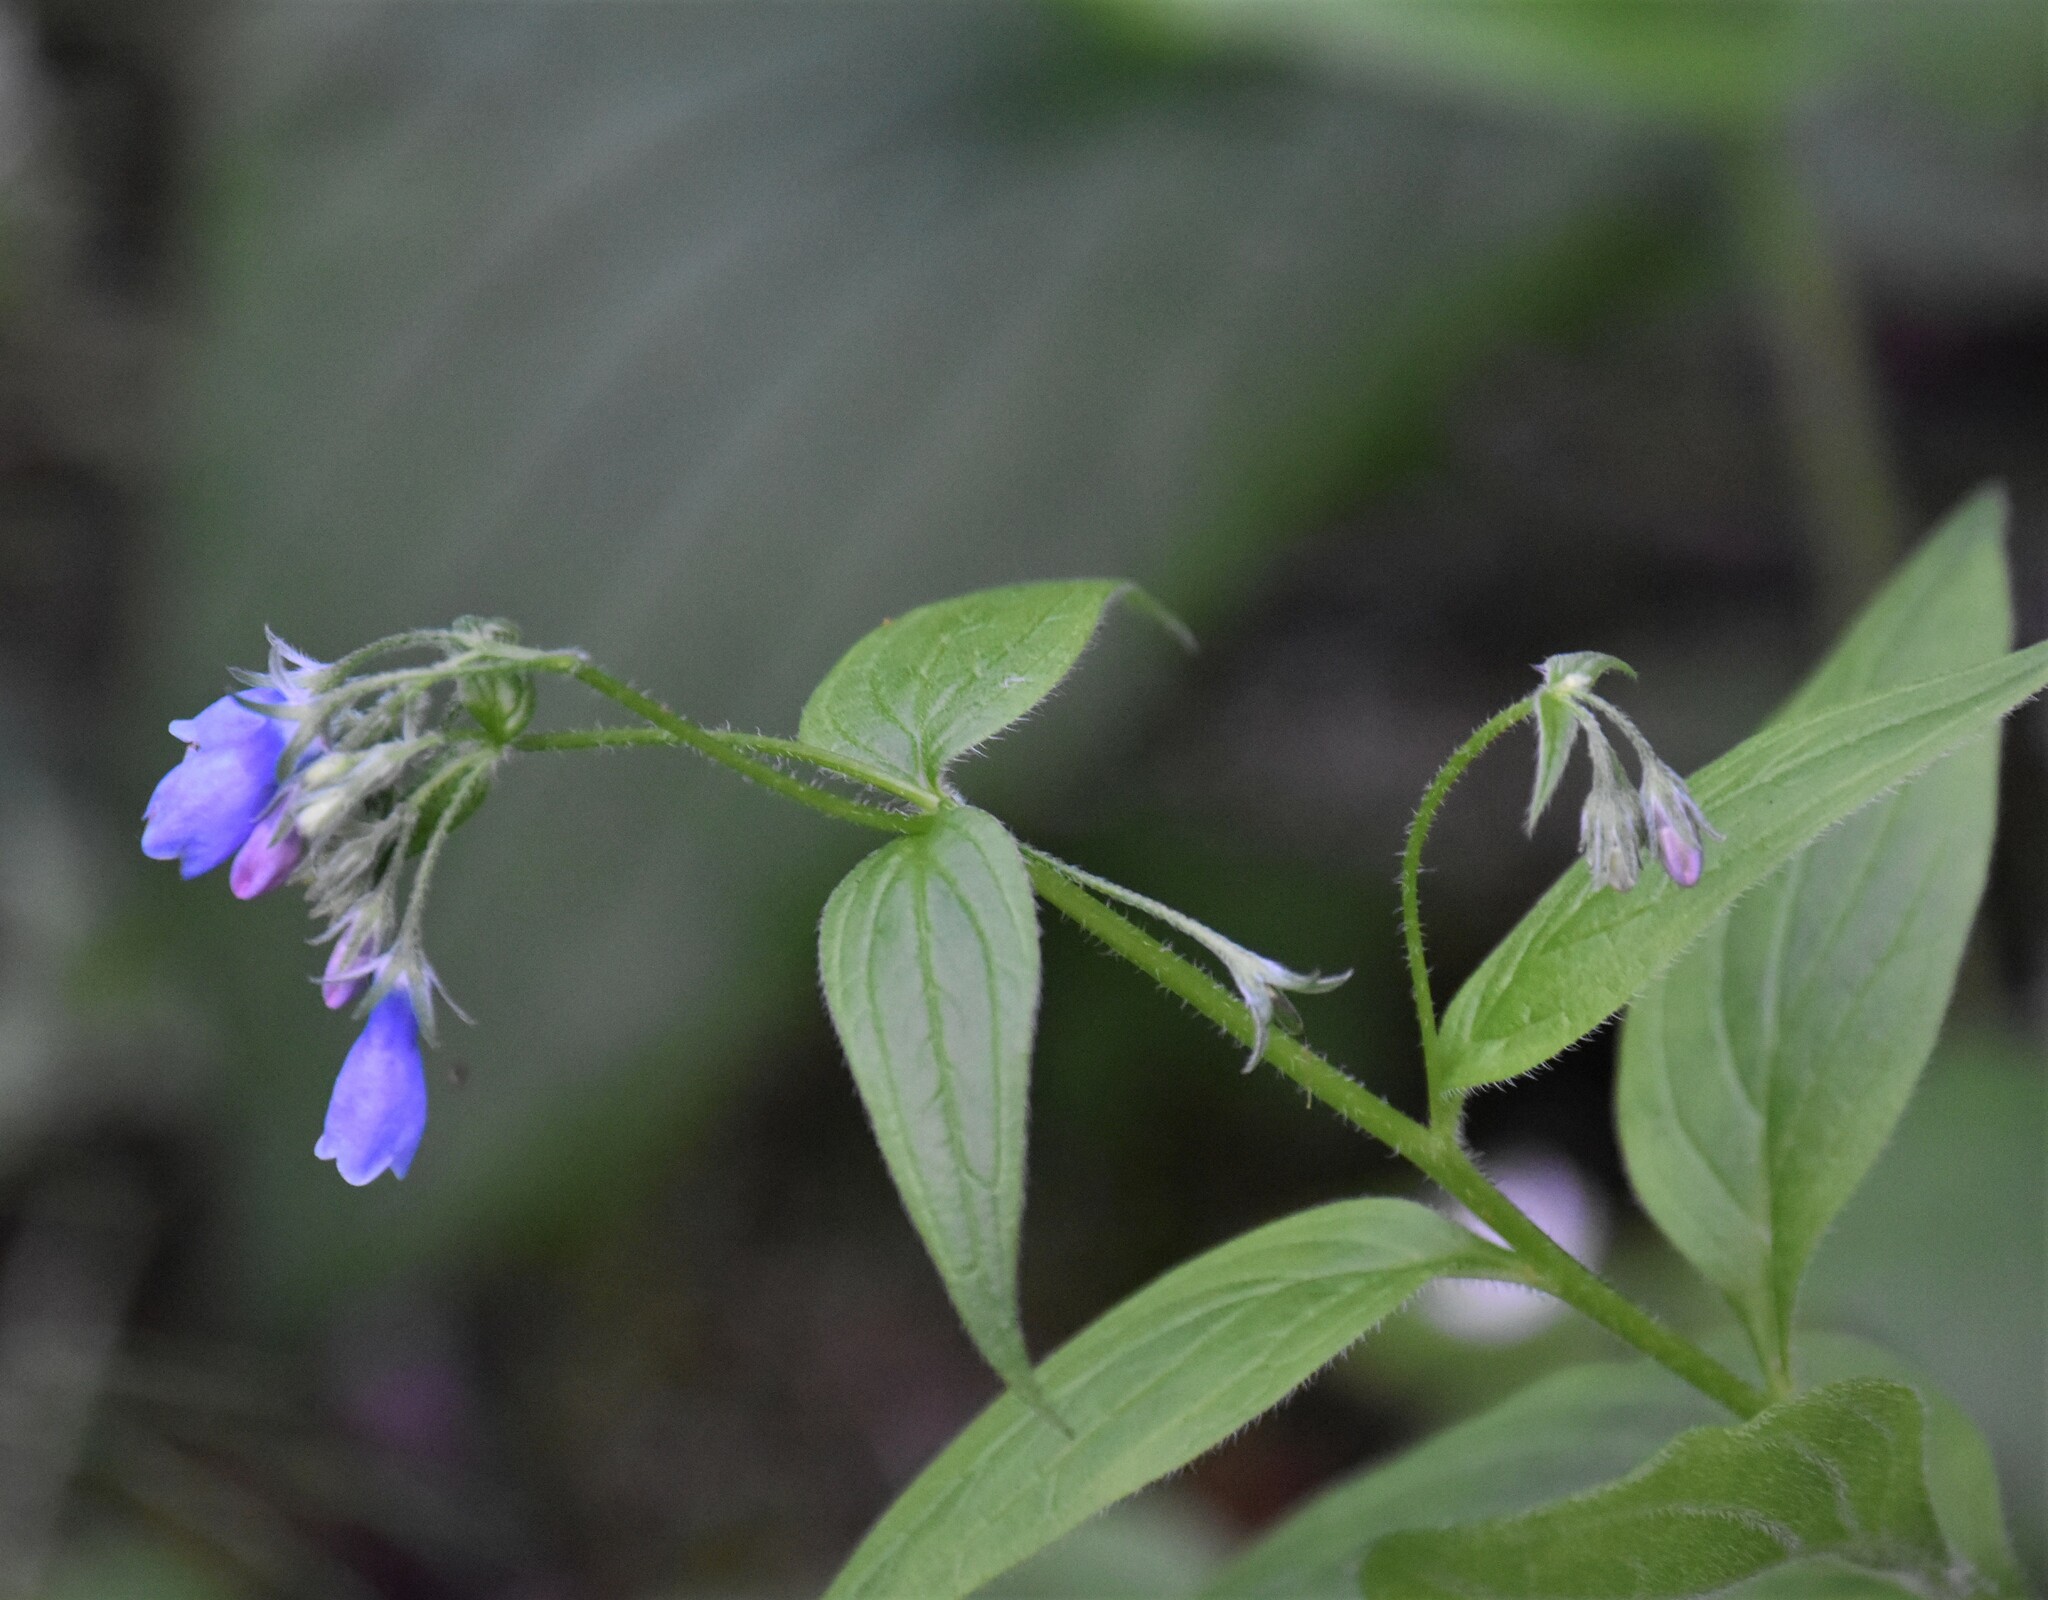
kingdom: Plantae
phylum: Tracheophyta
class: Magnoliopsida
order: Boraginales
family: Boraginaceae
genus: Mertensia
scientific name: Mertensia paniculata
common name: Panicled bluebells
